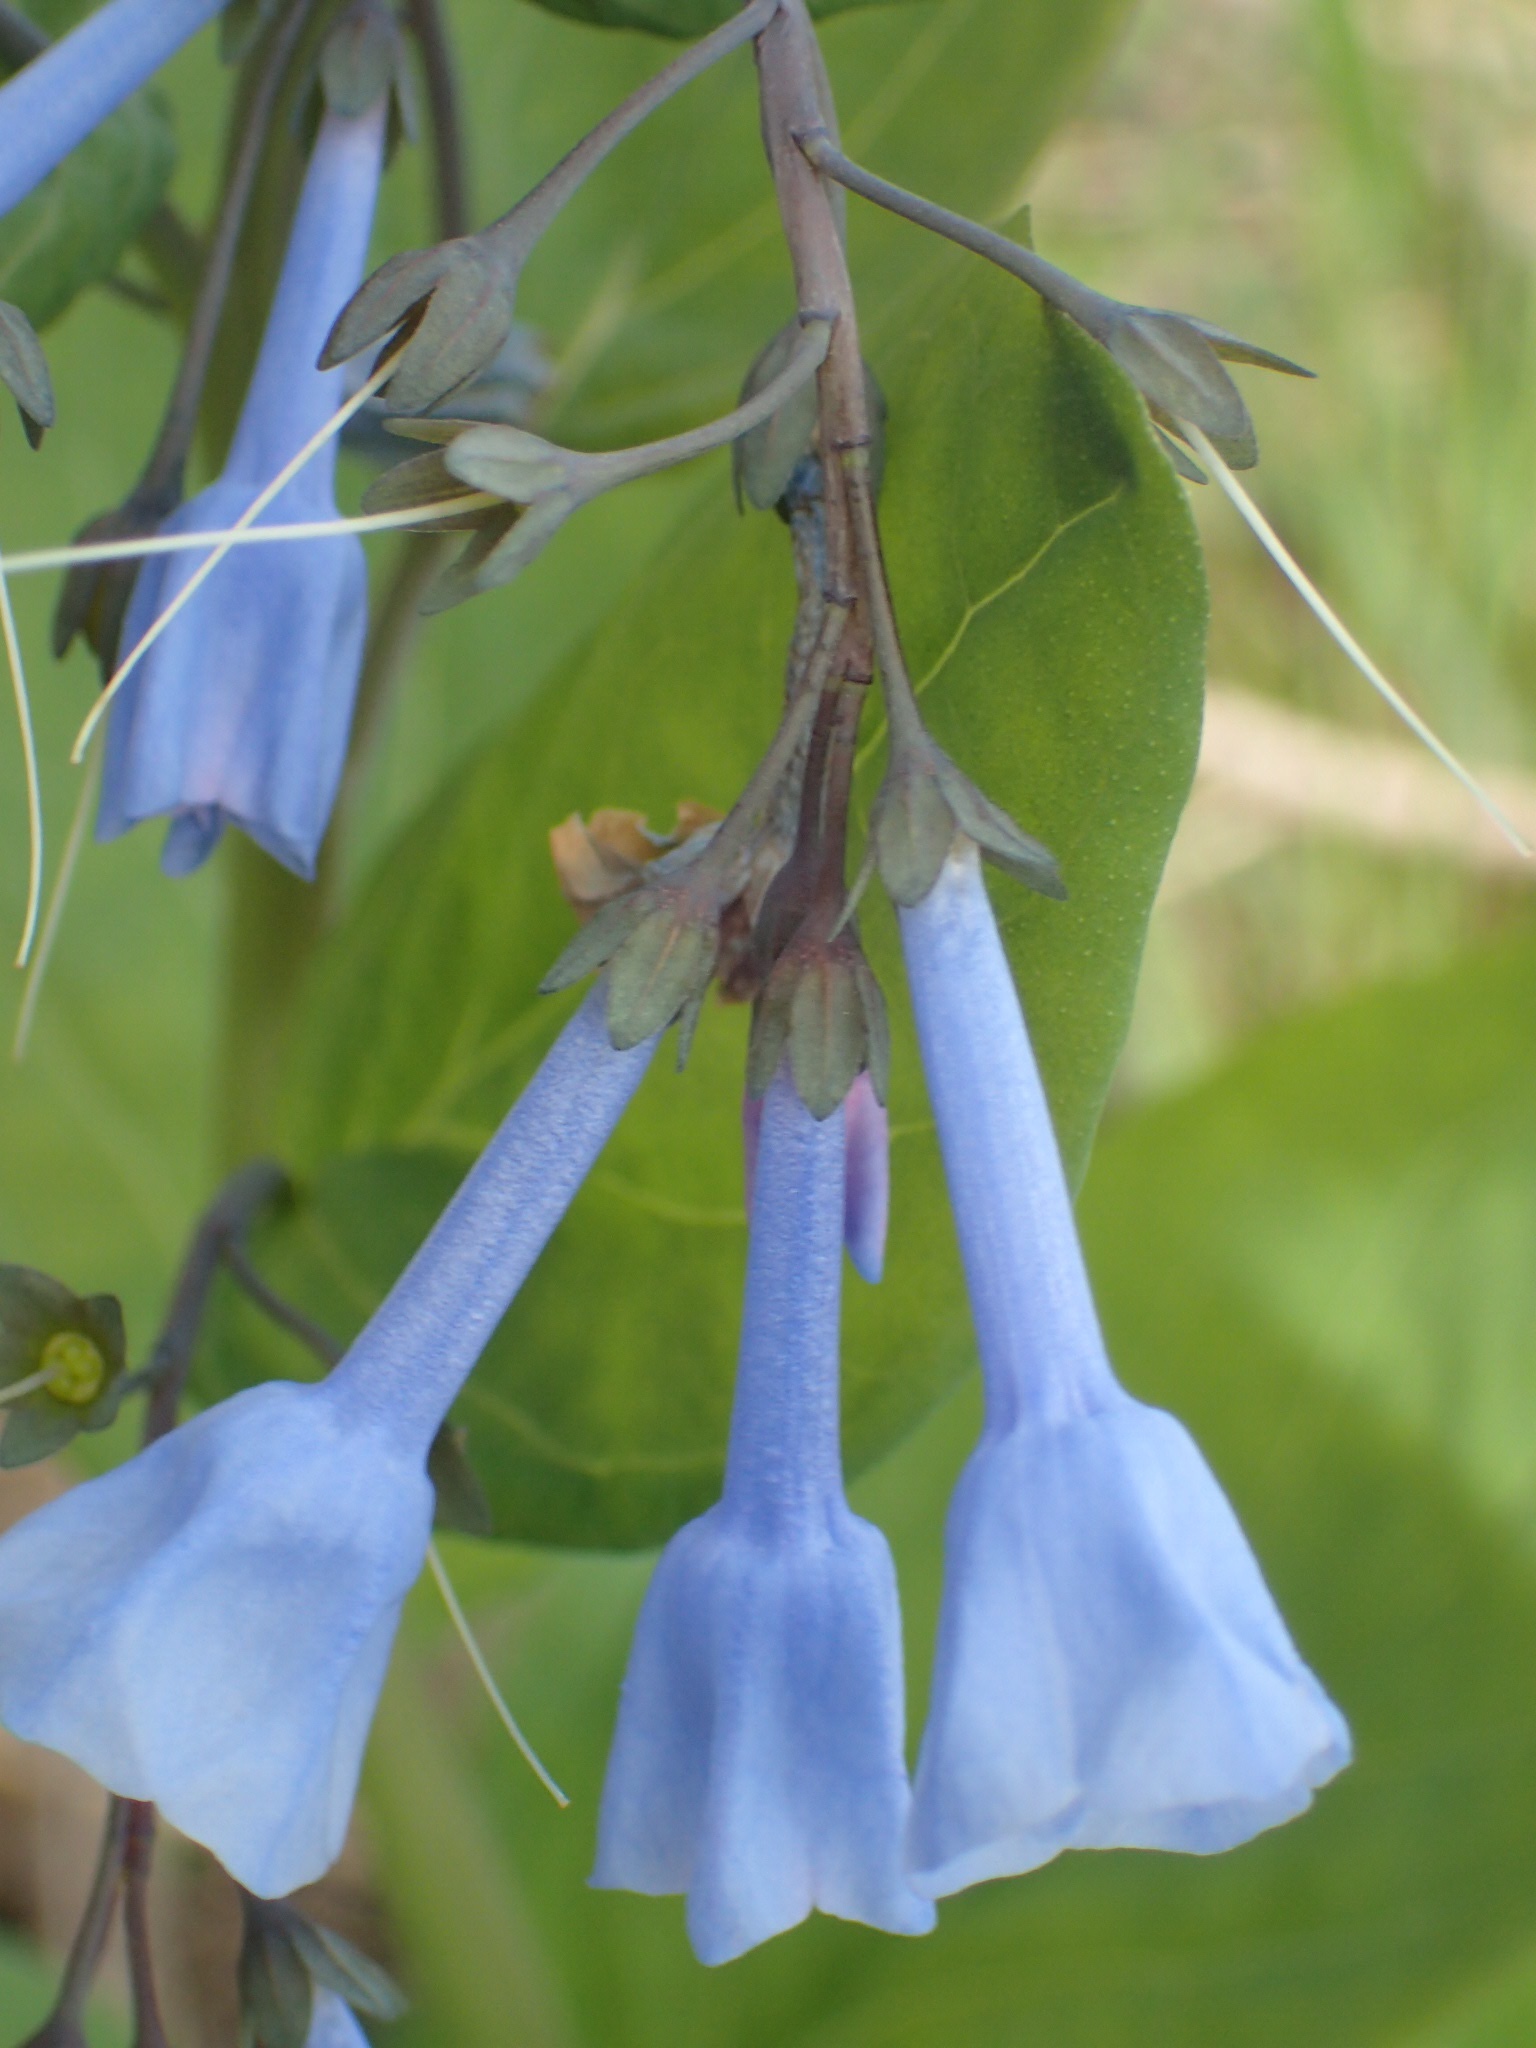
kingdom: Plantae
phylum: Tracheophyta
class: Magnoliopsida
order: Boraginales
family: Boraginaceae
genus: Mertensia
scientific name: Mertensia virginica
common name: Virginia bluebells
